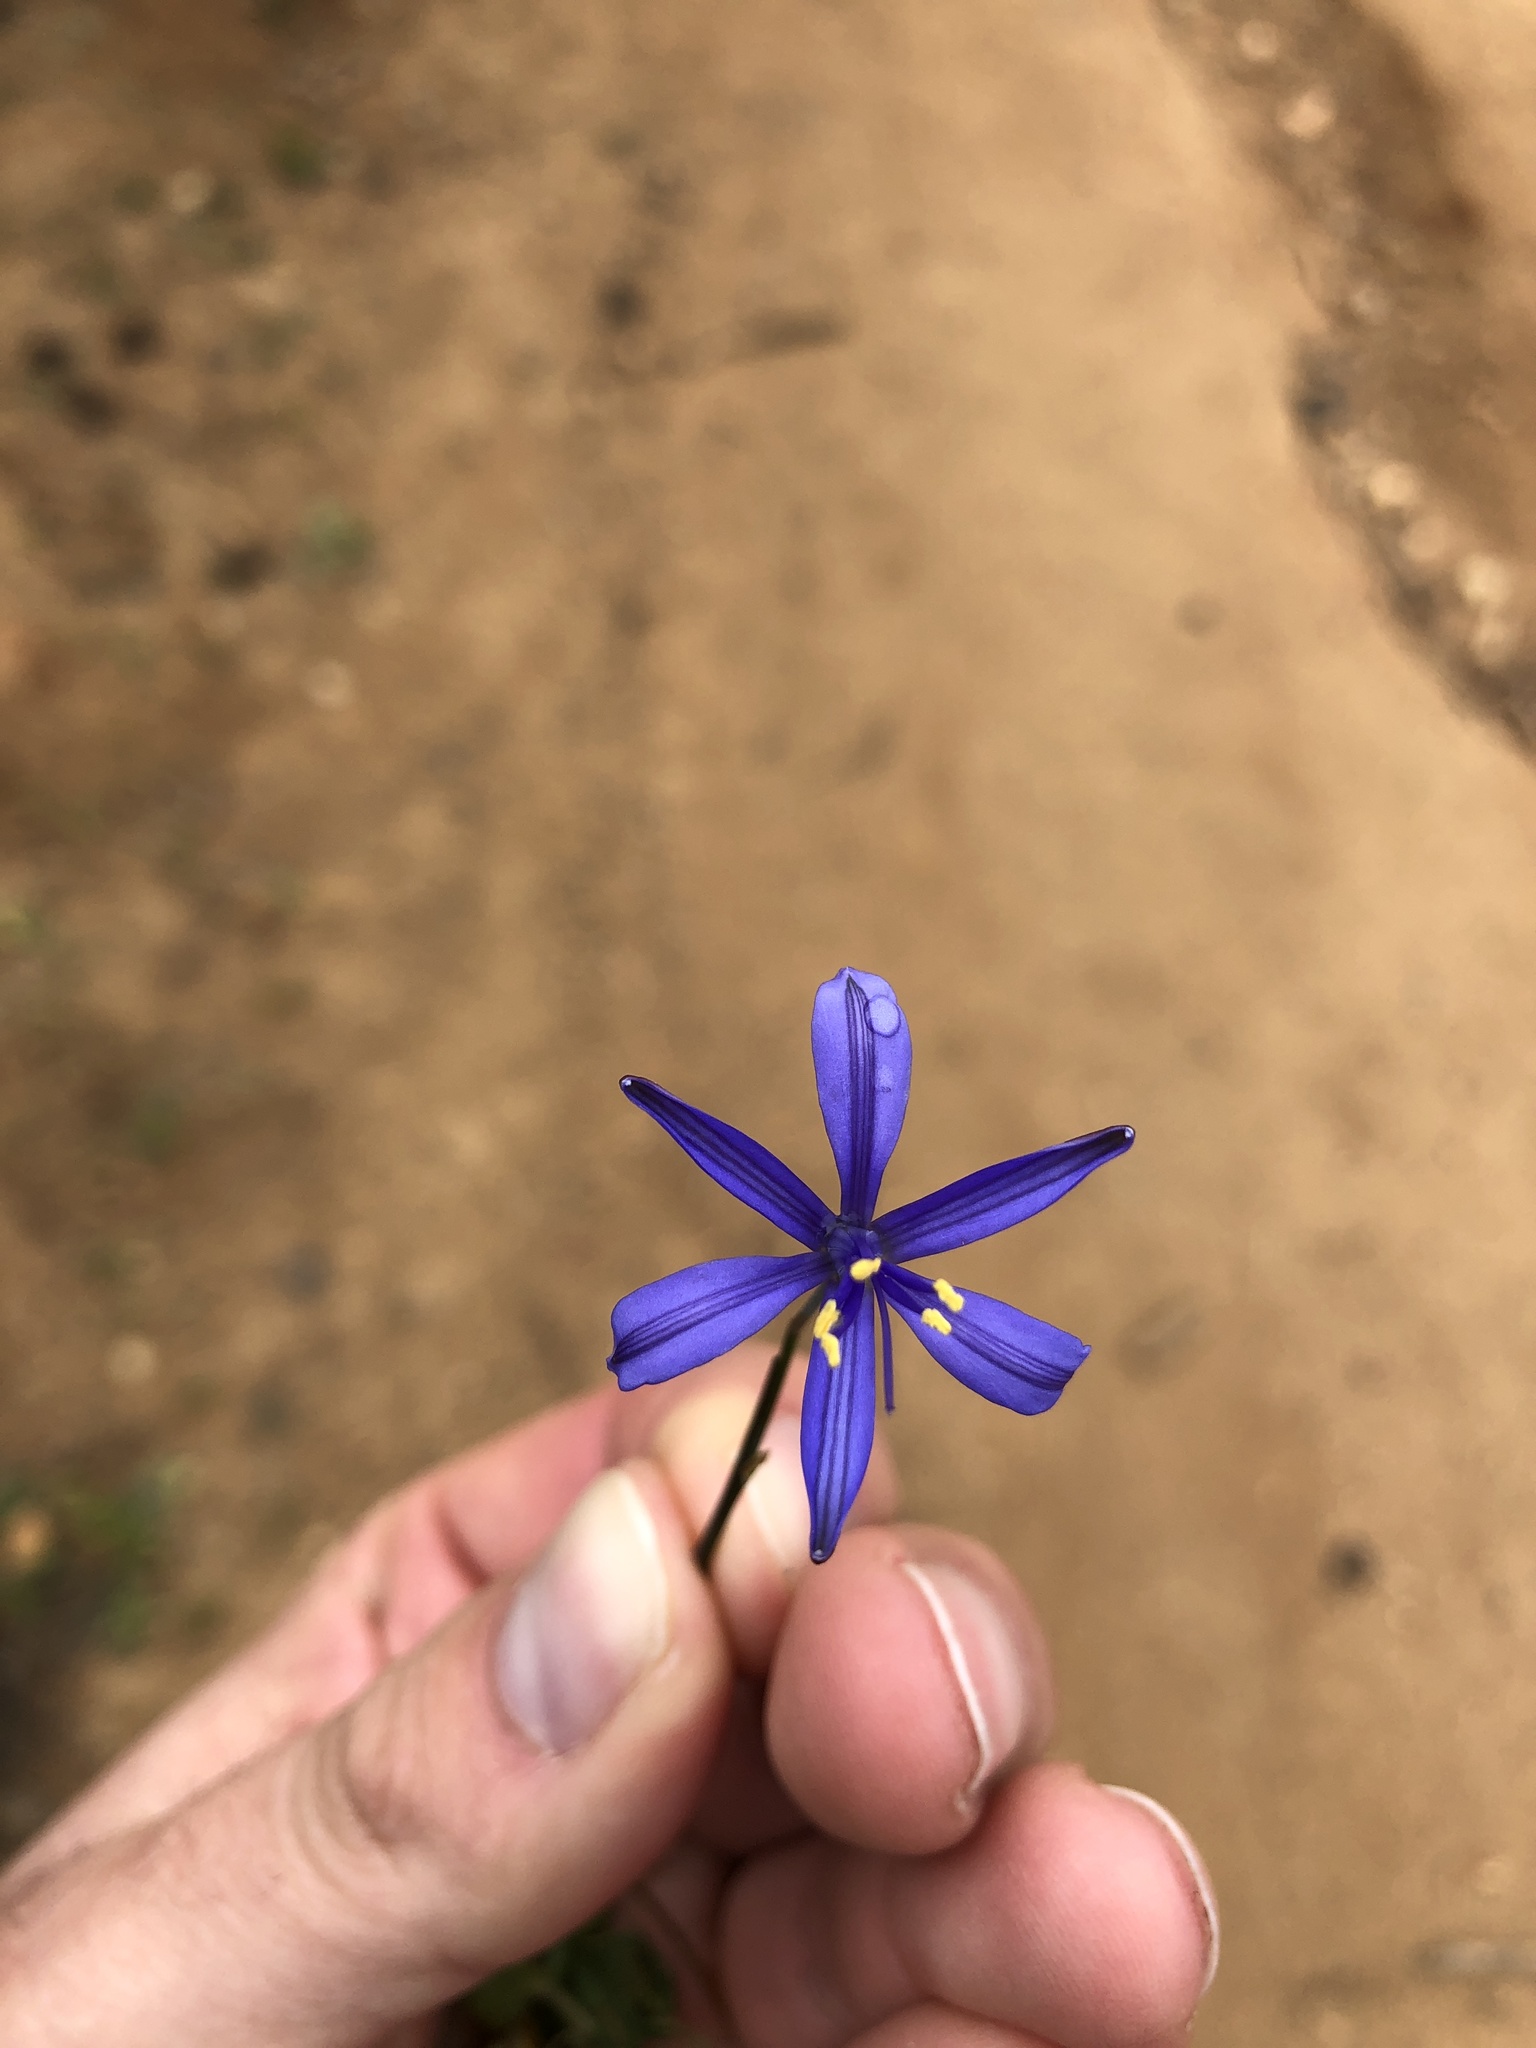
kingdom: Plantae
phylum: Tracheophyta
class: Liliopsida
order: Asparagales
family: Asphodelaceae
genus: Pasithea
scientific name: Pasithea caerulea
